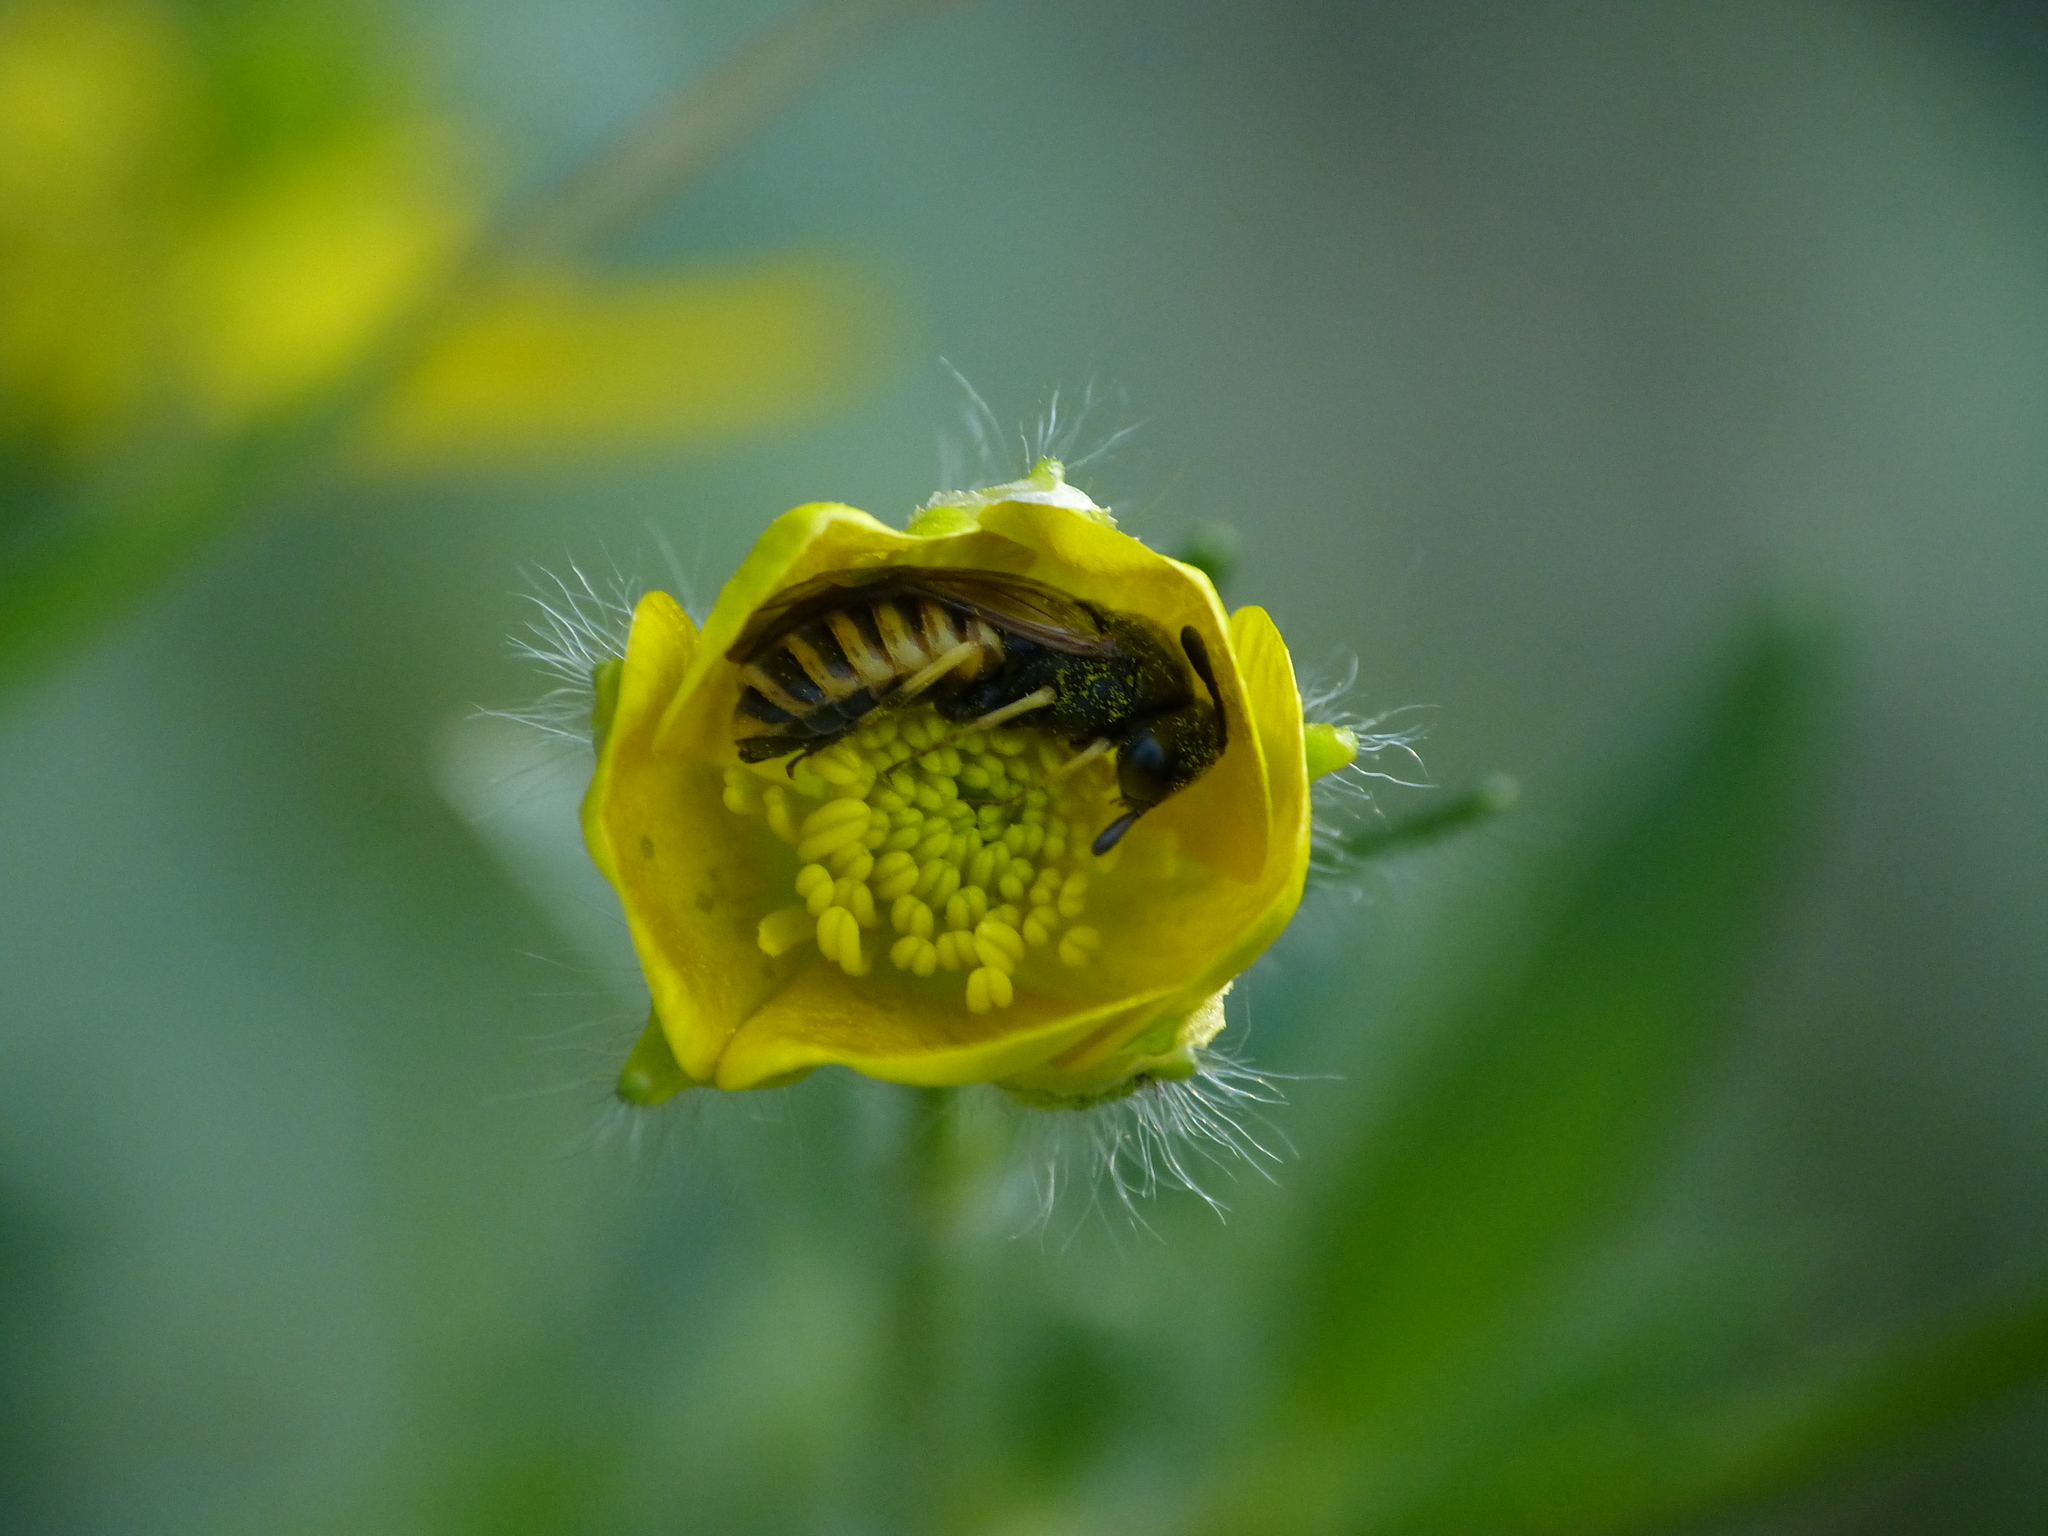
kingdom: Plantae
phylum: Tracheophyta
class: Magnoliopsida
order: Ranunculales
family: Ranunculaceae
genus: Ranunculus
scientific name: Ranunculus bulbosus
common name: Bulbous buttercup
